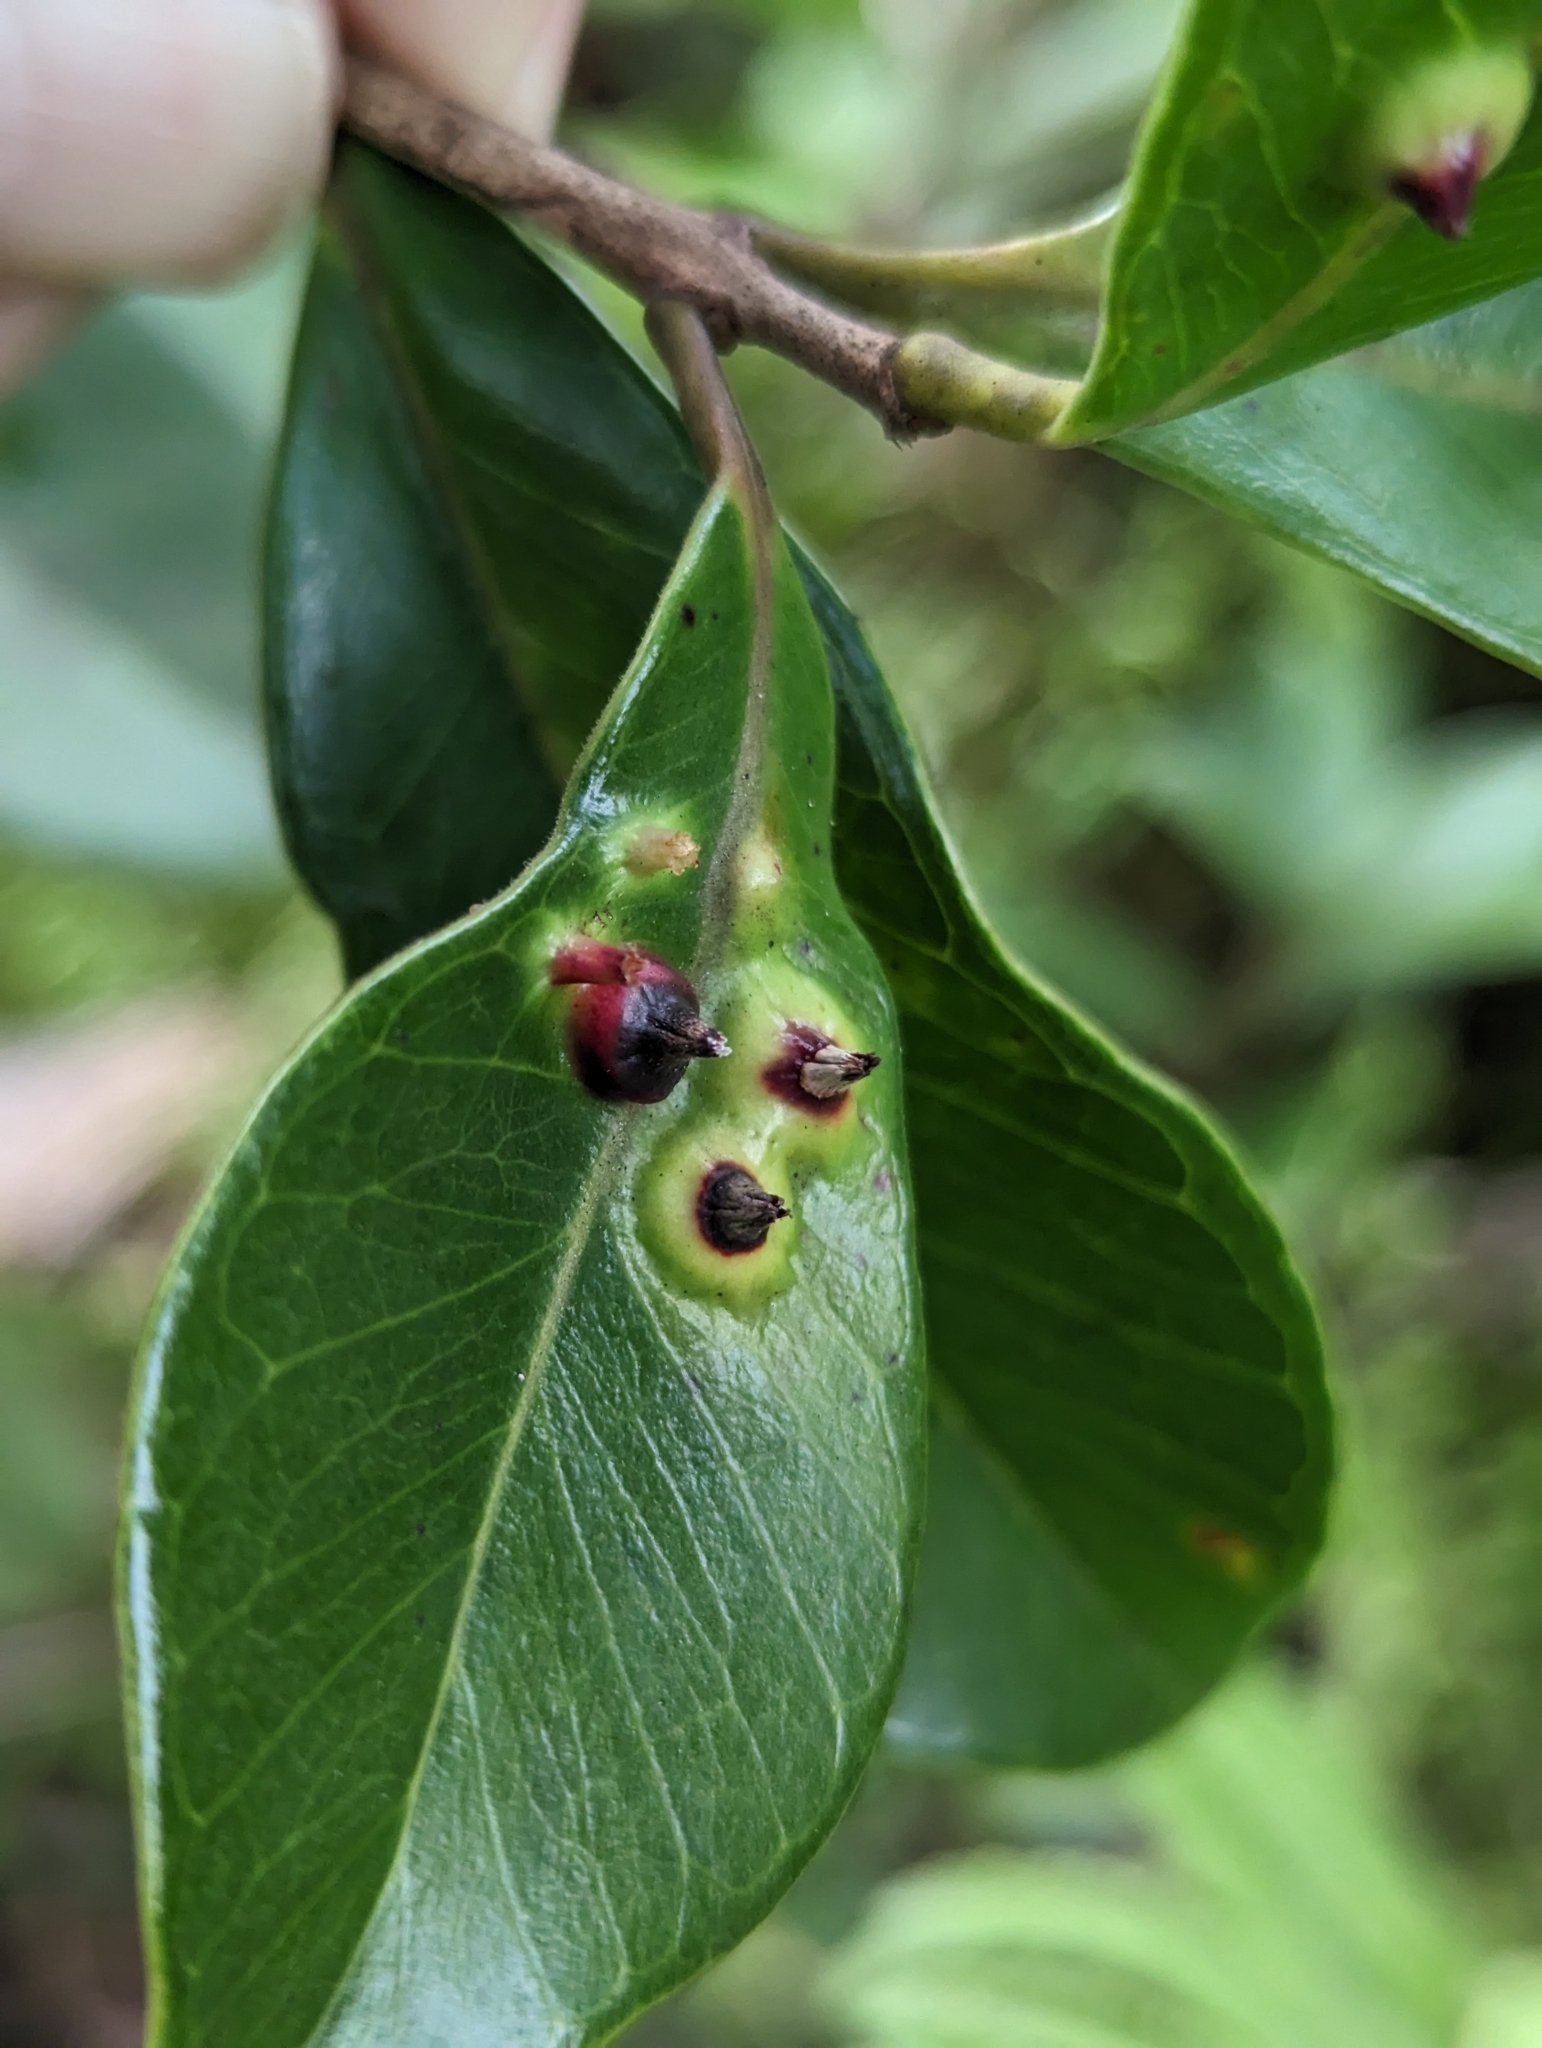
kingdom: Animalia
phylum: Arthropoda
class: Insecta
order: Hemiptera
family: Eriococcidae
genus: Tectococcus
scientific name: Tectococcus ovatus
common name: Eriococcid scale
